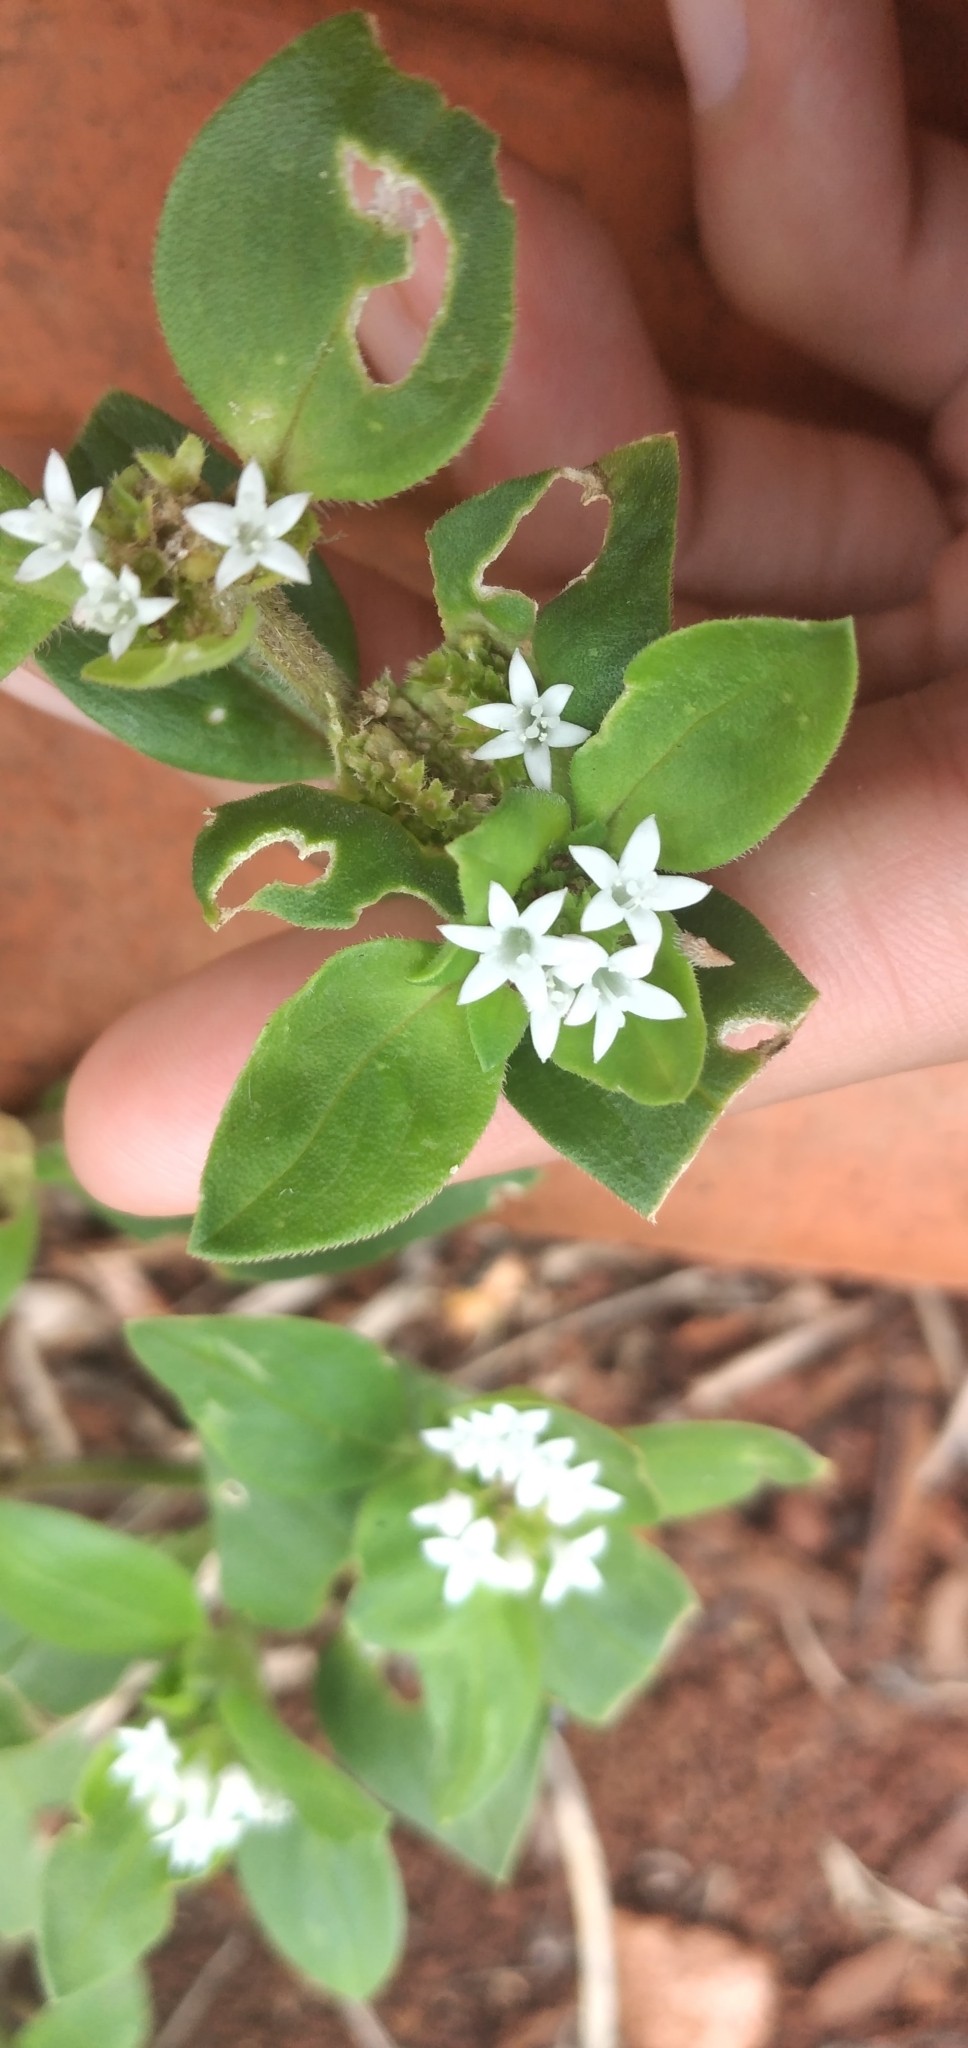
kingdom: Plantae
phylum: Tracheophyta
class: Magnoliopsida
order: Gentianales
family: Rubiaceae
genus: Richardia
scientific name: Richardia brasiliensis
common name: Tropical mexican clover
